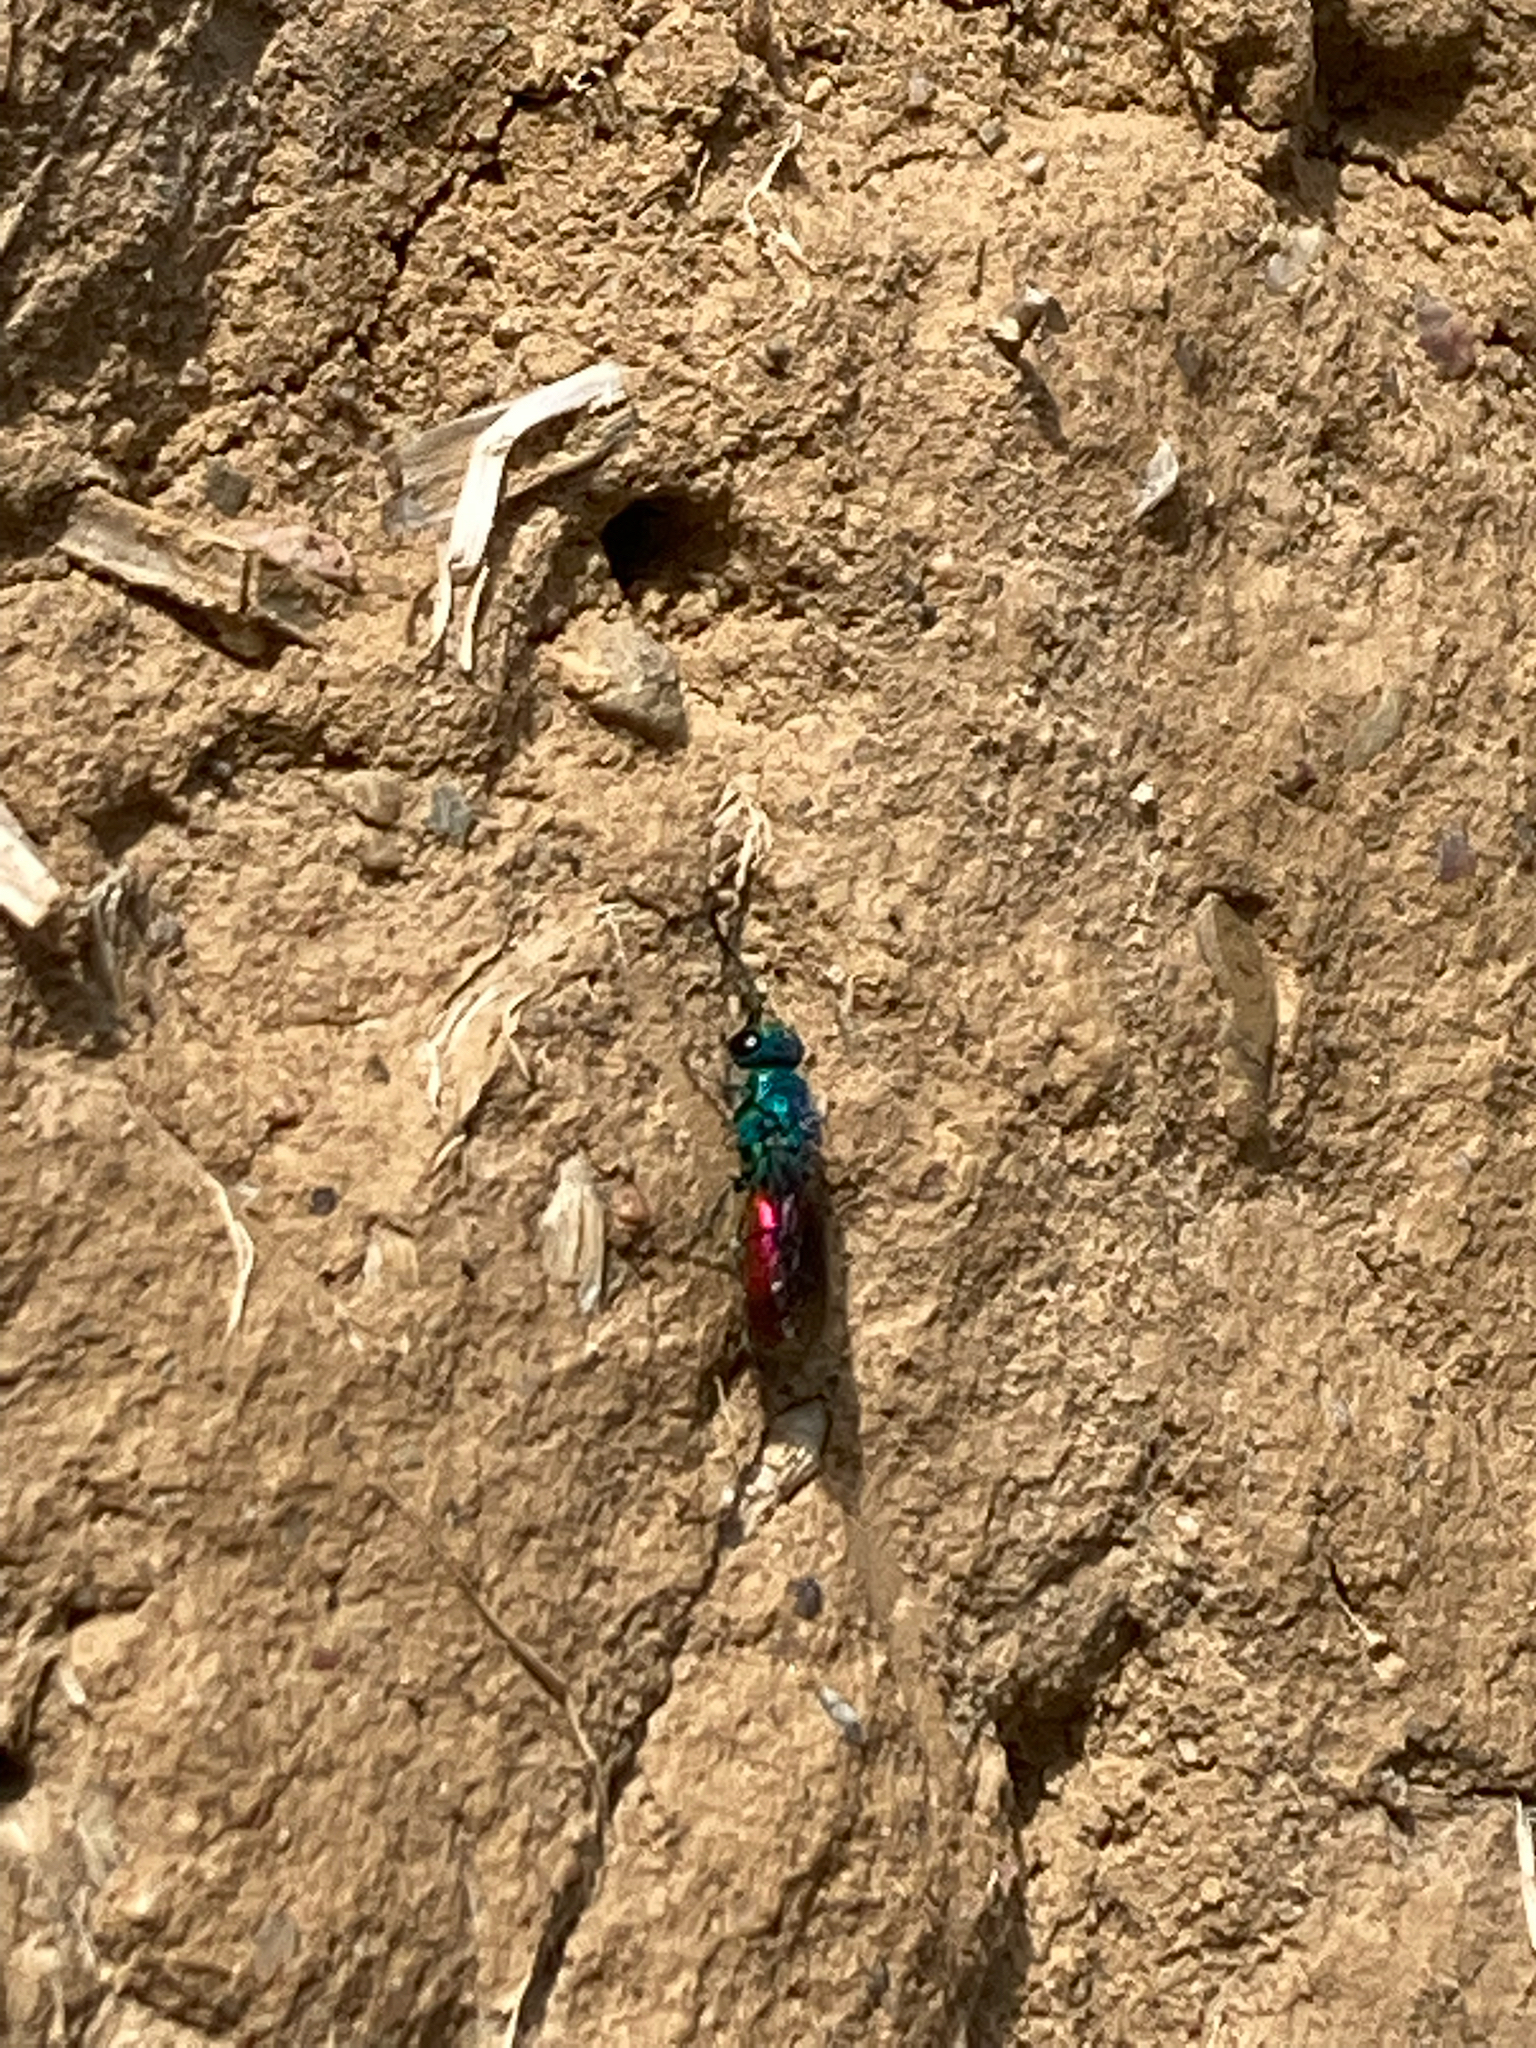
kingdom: Animalia
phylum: Arthropoda
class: Insecta
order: Hymenoptera
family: Chrysididae
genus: Chrysis
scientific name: Chrysis ignita
